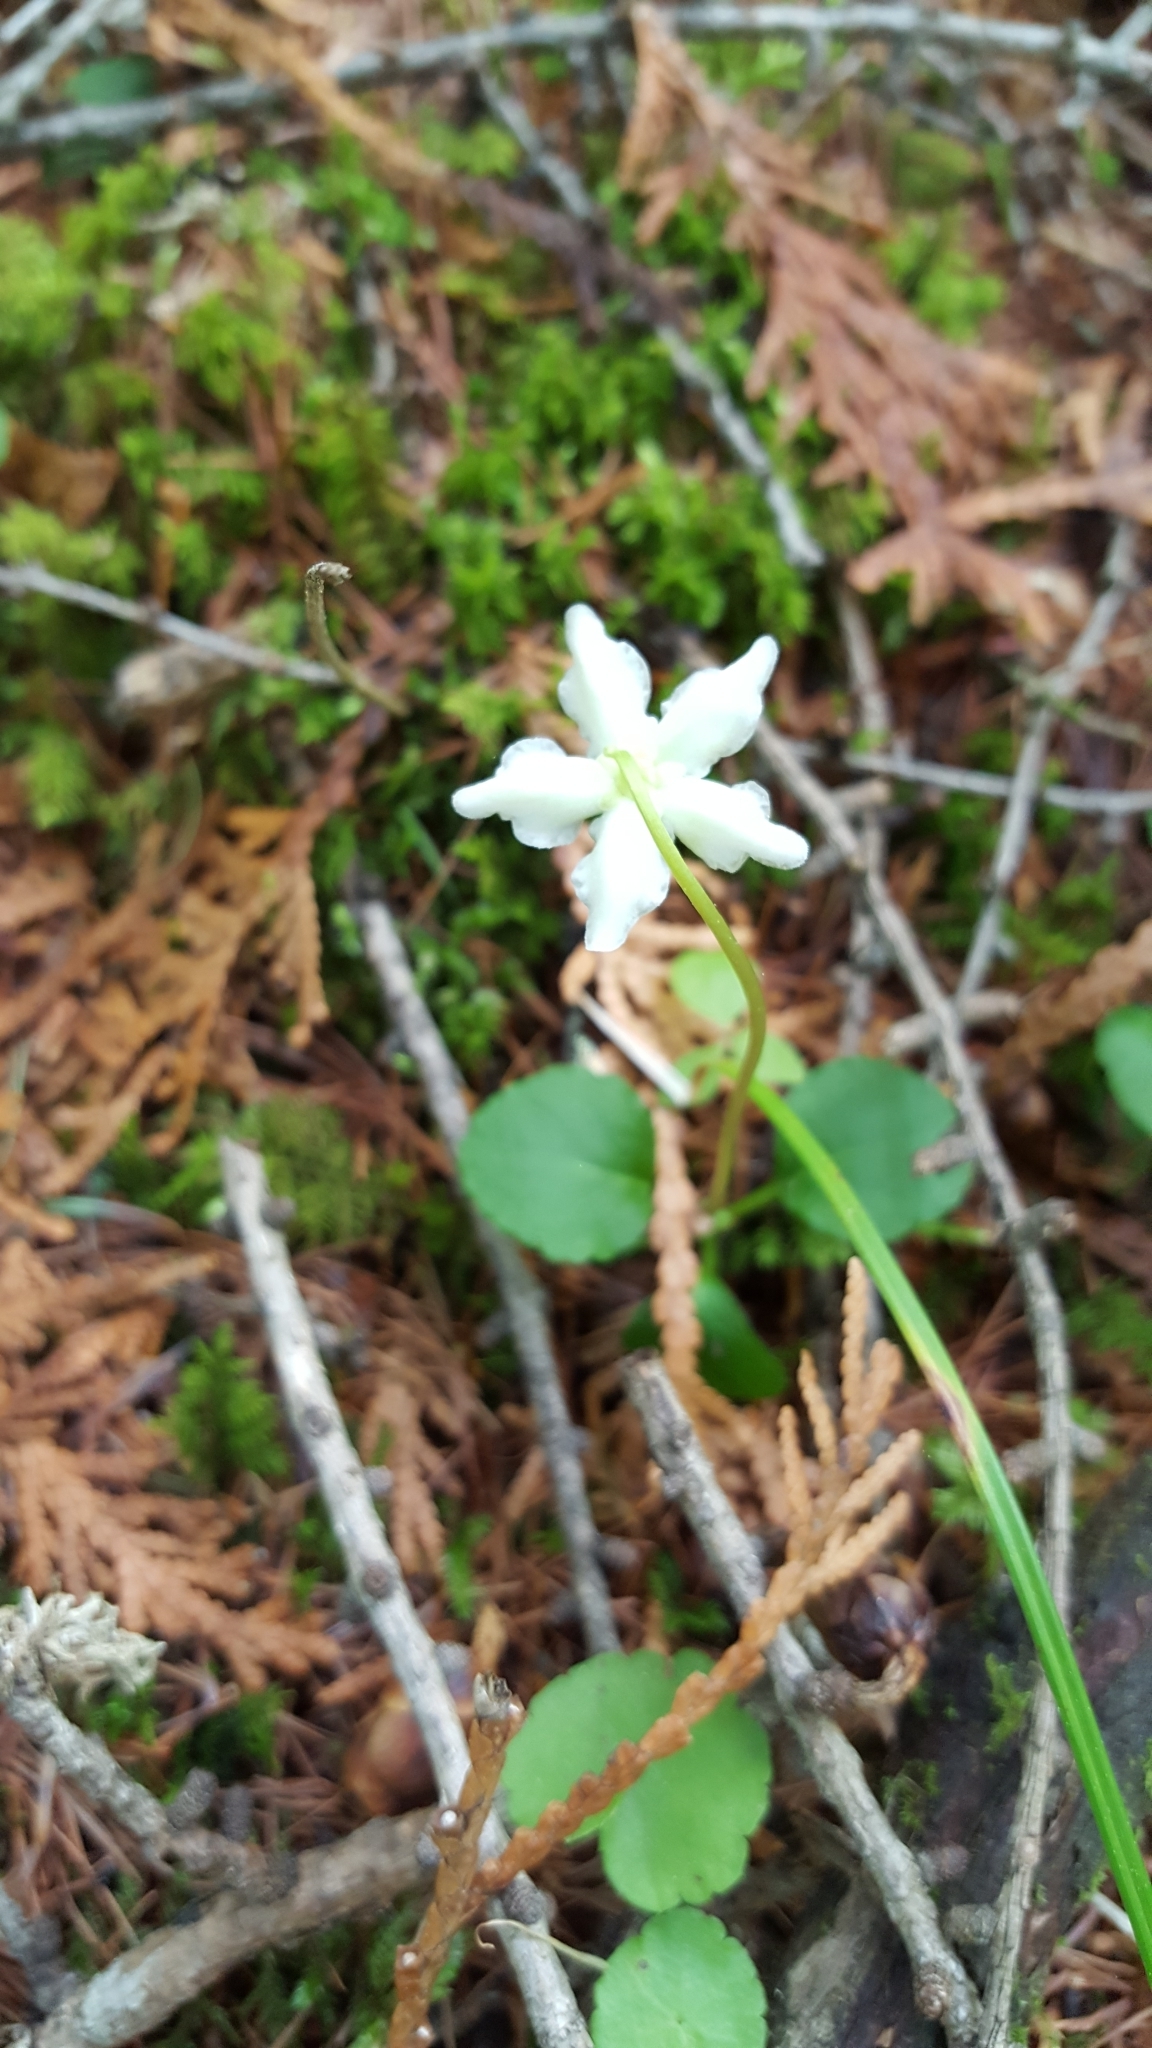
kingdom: Plantae
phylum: Tracheophyta
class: Magnoliopsida
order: Ericales
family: Ericaceae
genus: Moneses
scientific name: Moneses uniflora
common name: One-flowered wintergreen
